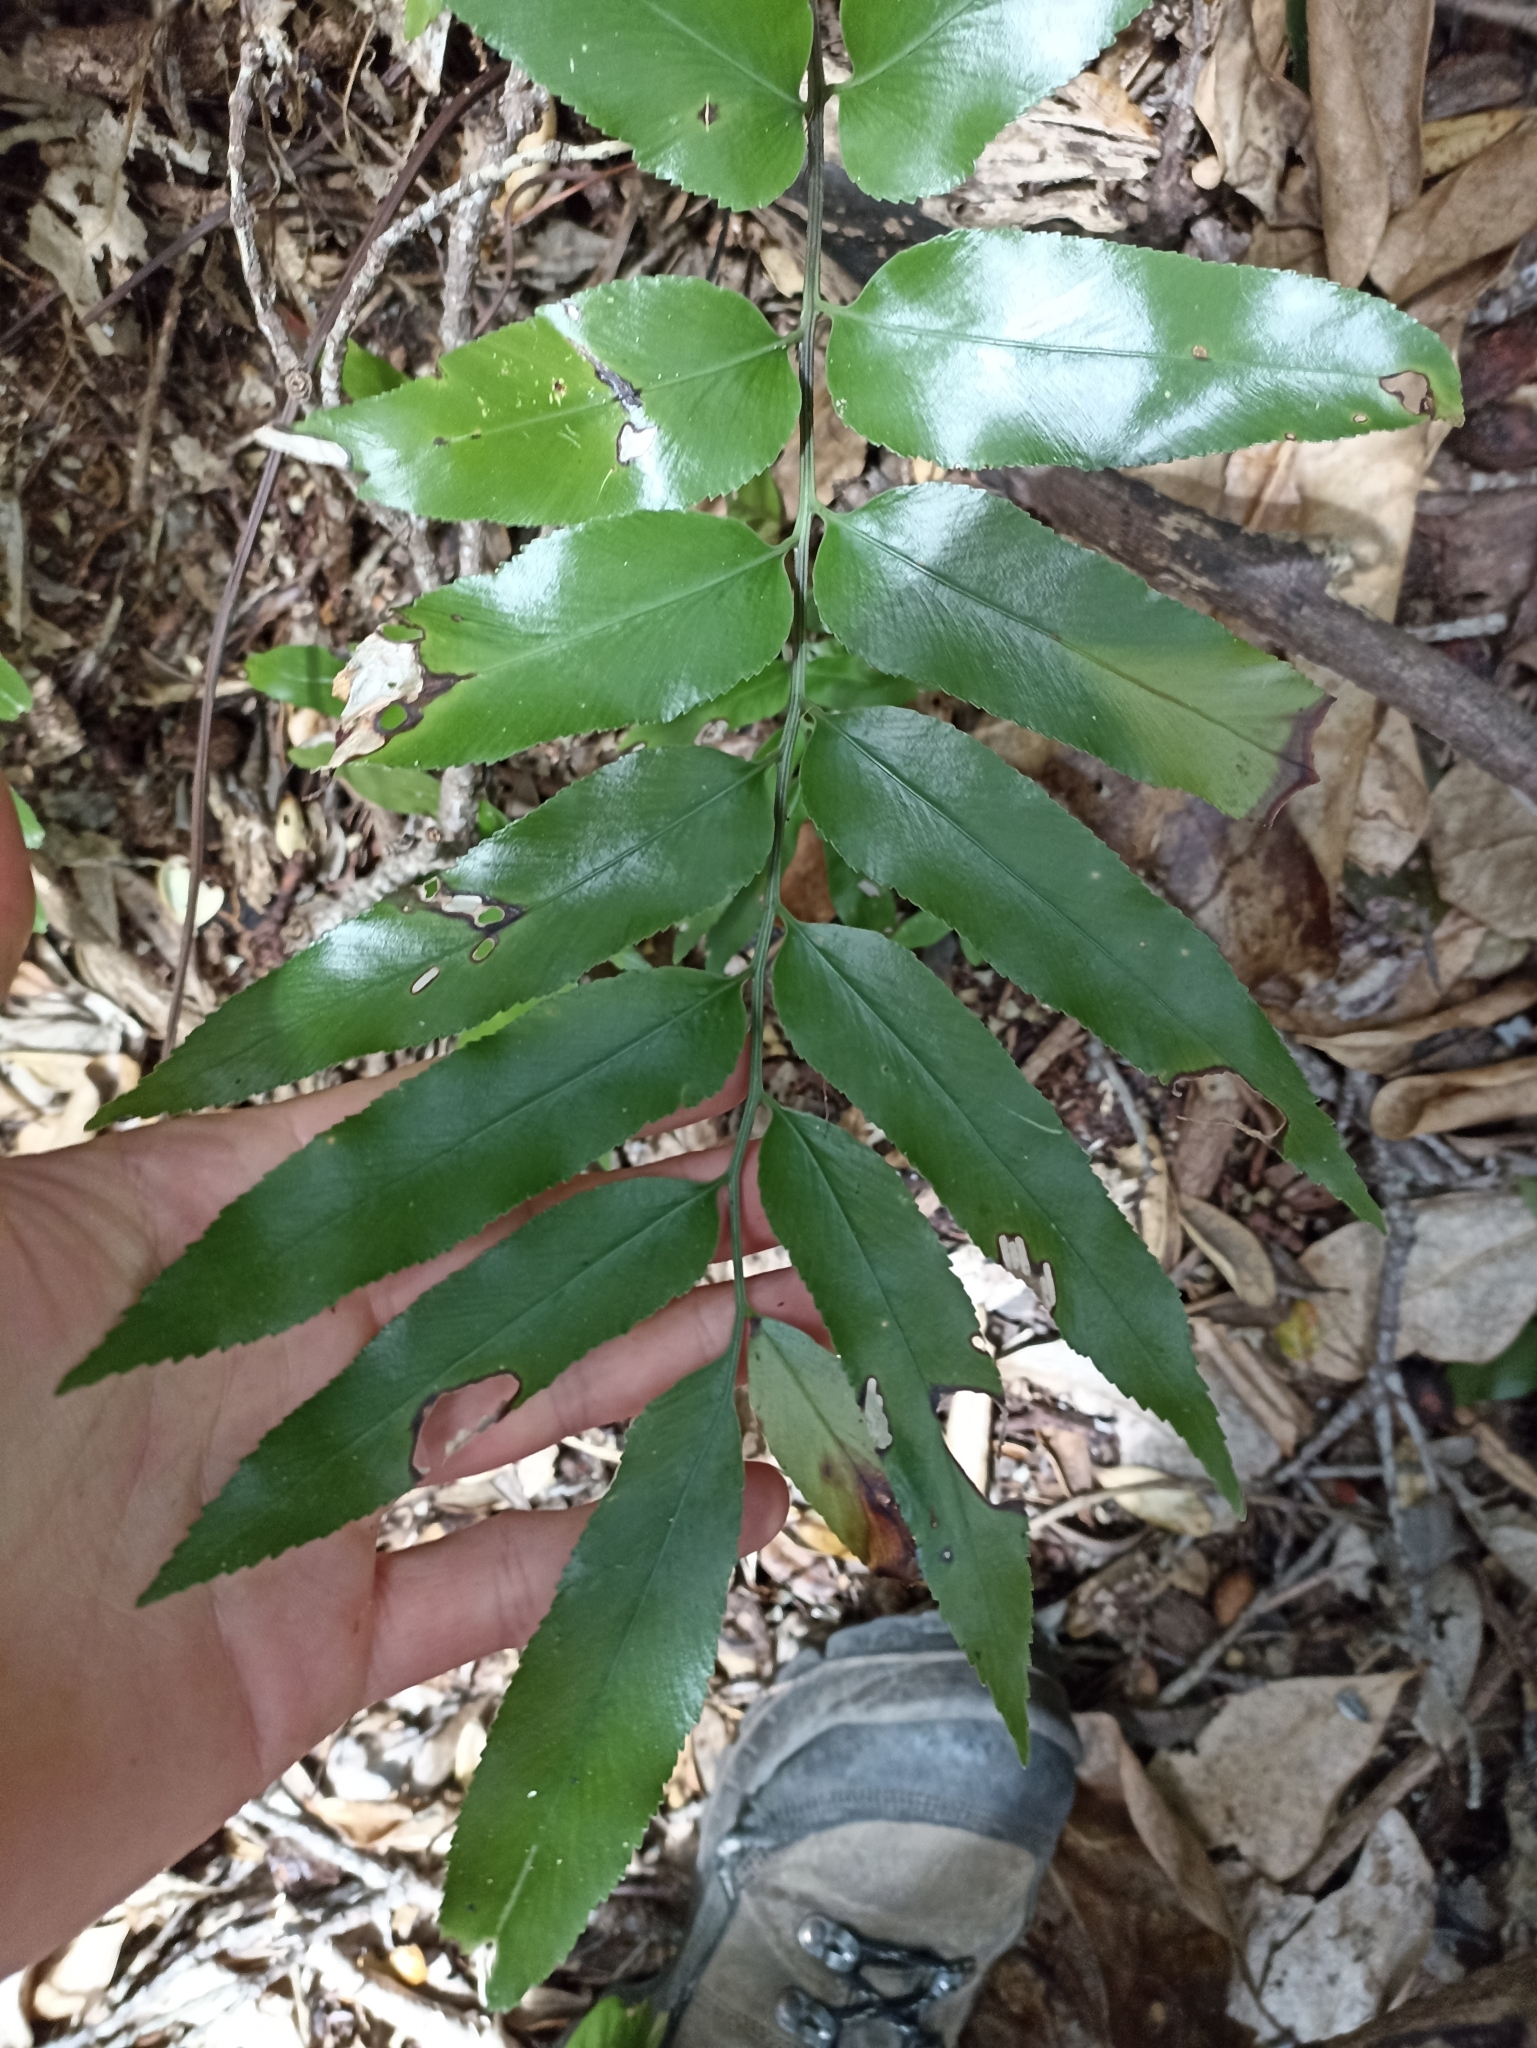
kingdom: Plantae
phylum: Tracheophyta
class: Polypodiopsida
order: Polypodiales
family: Aspleniaceae
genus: Asplenium
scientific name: Asplenium oblongifolium
